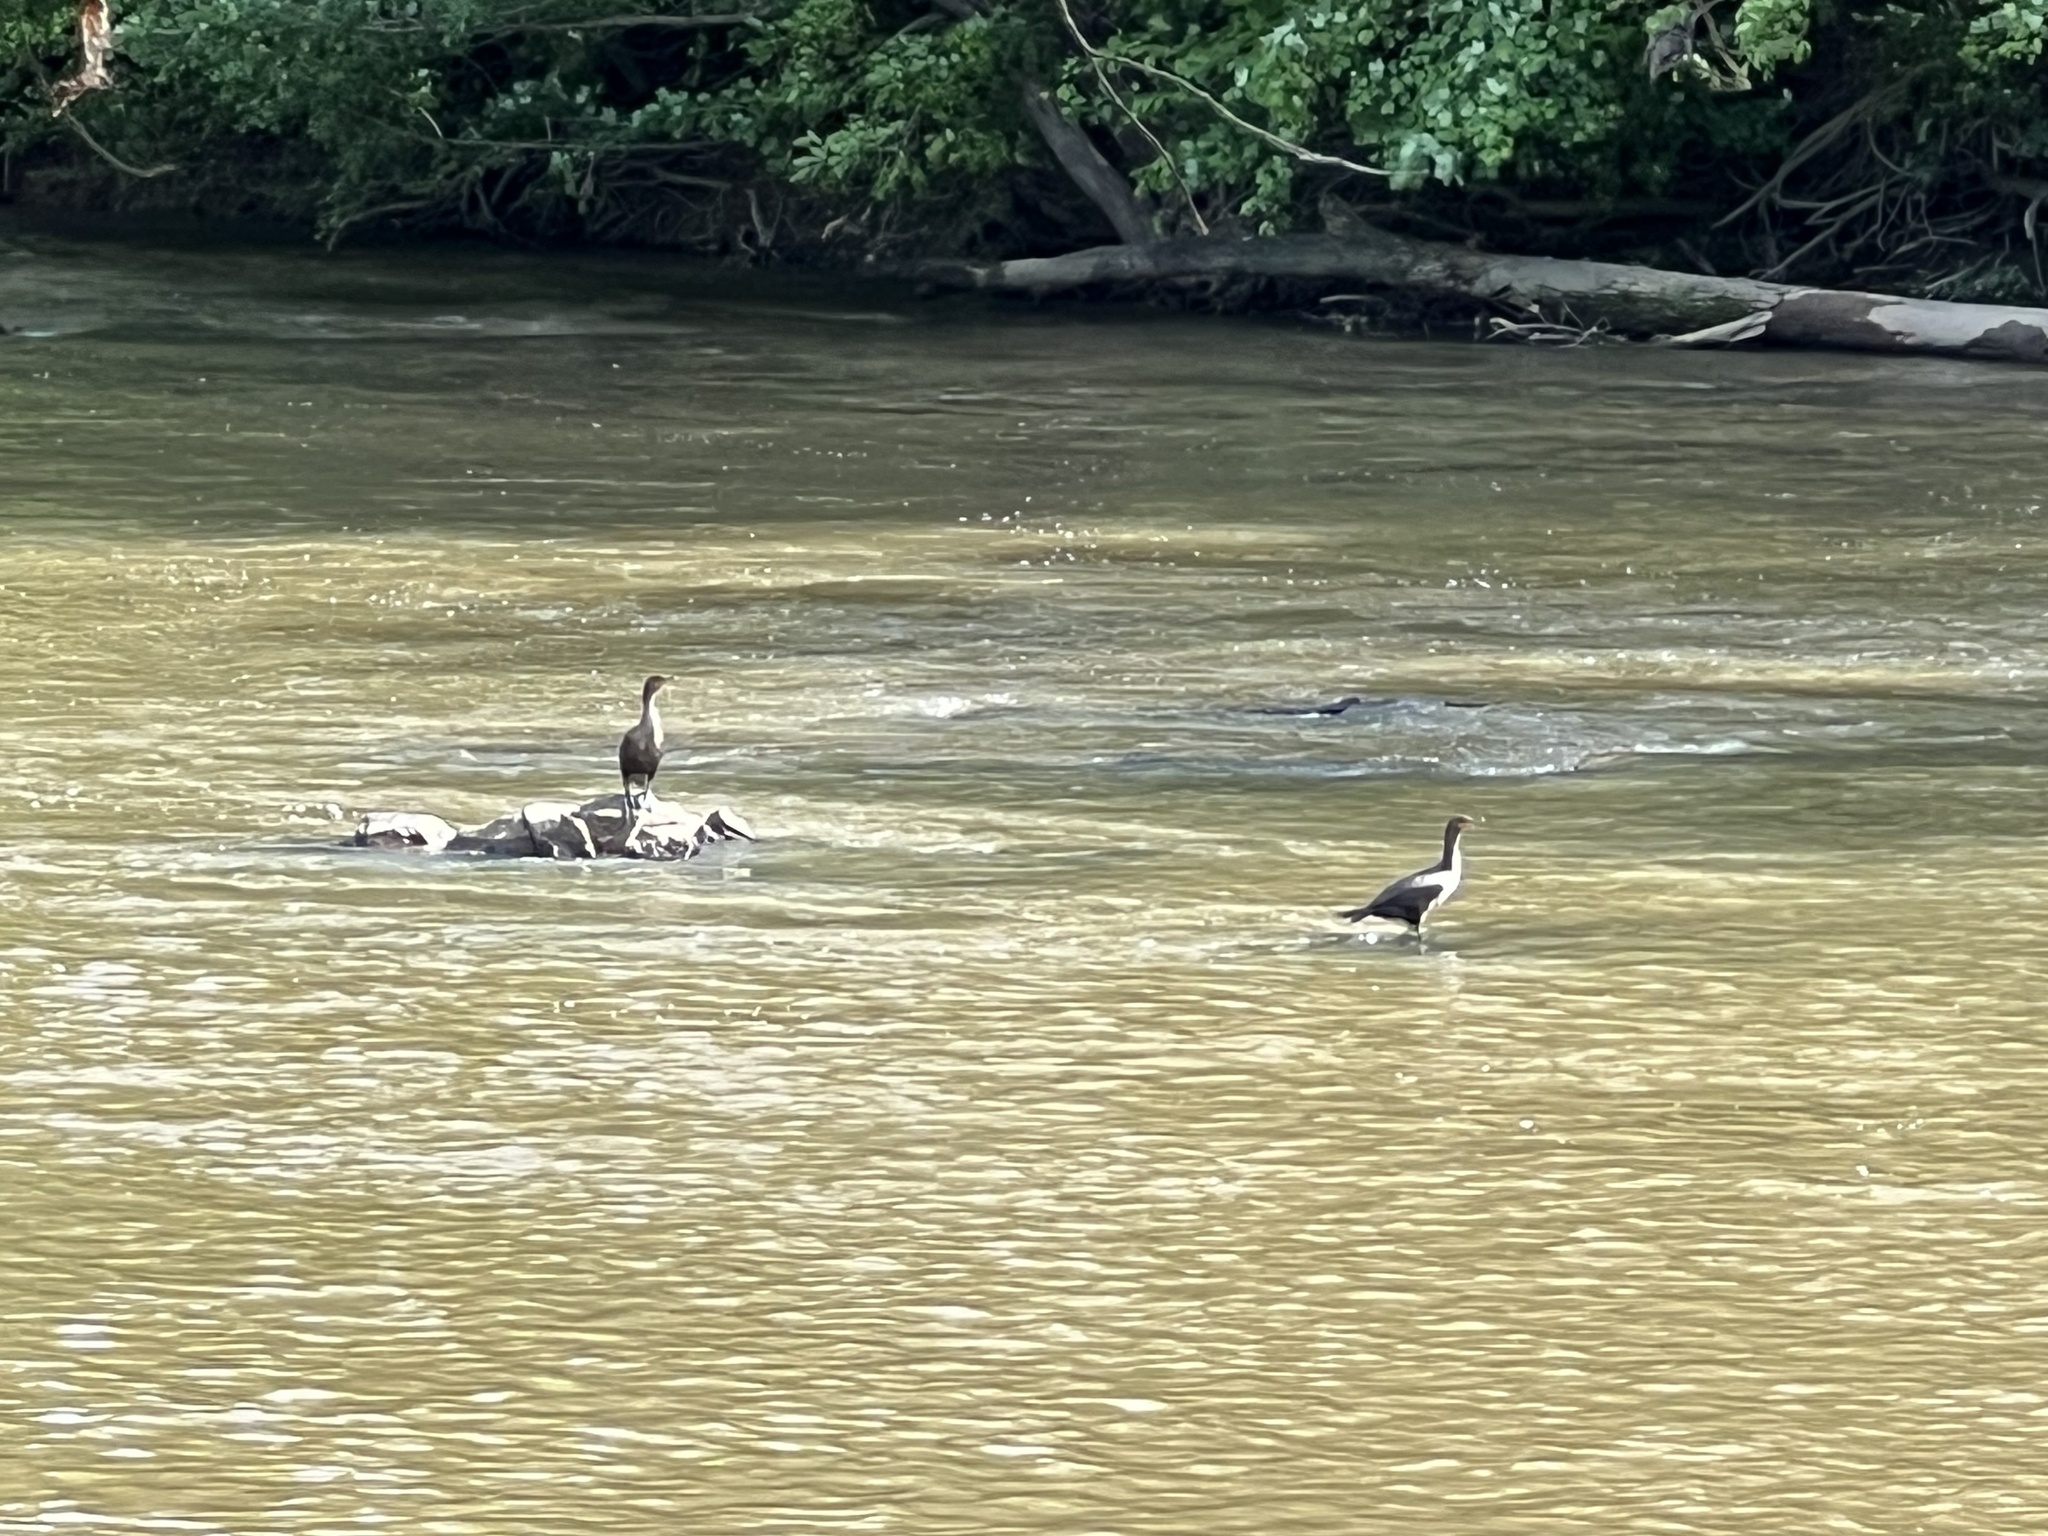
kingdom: Animalia
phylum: Chordata
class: Aves
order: Suliformes
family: Phalacrocoracidae
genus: Phalacrocorax
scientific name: Phalacrocorax auritus
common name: Double-crested cormorant
